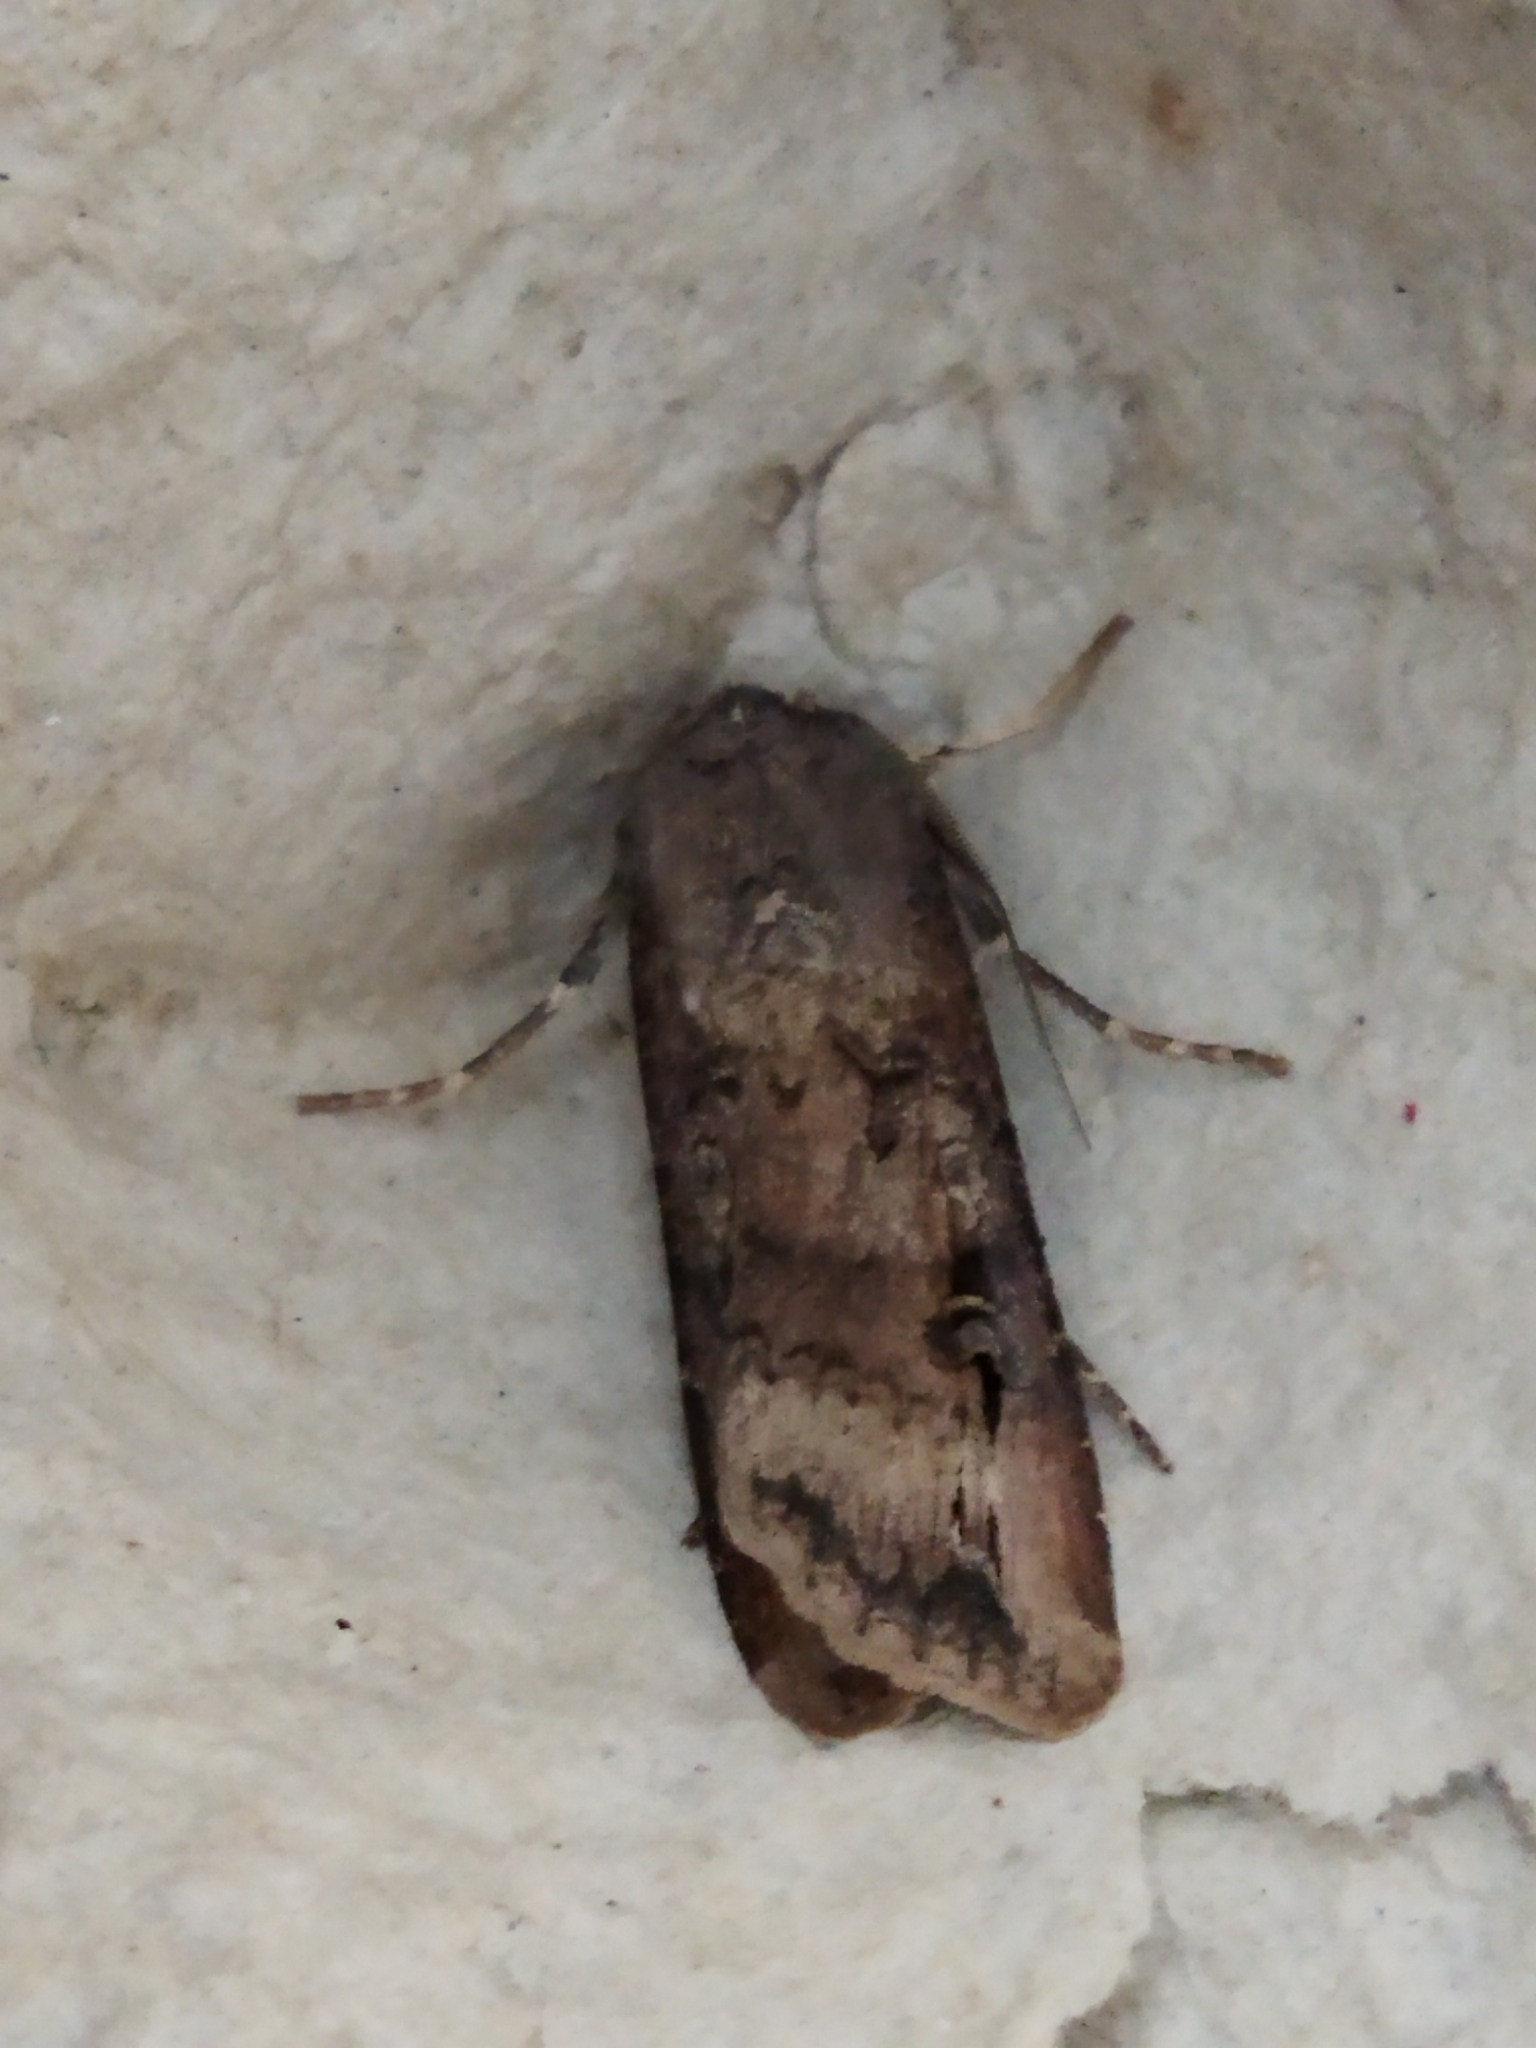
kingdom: Animalia
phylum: Arthropoda
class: Insecta
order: Lepidoptera
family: Noctuidae
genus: Agrotis
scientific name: Agrotis ipsilon
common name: Dark sword-grass
